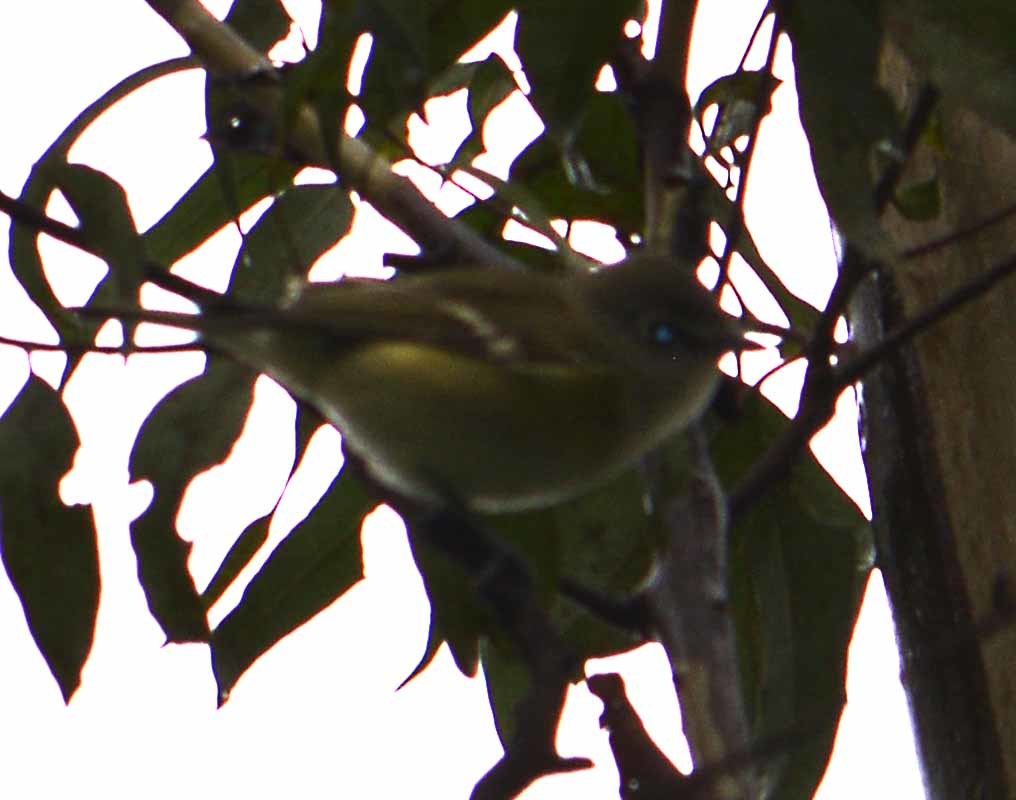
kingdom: Animalia
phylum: Chordata
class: Aves
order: Passeriformes
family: Vireonidae
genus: Vireo
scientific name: Vireo cassinii
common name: Cassin's vireo
